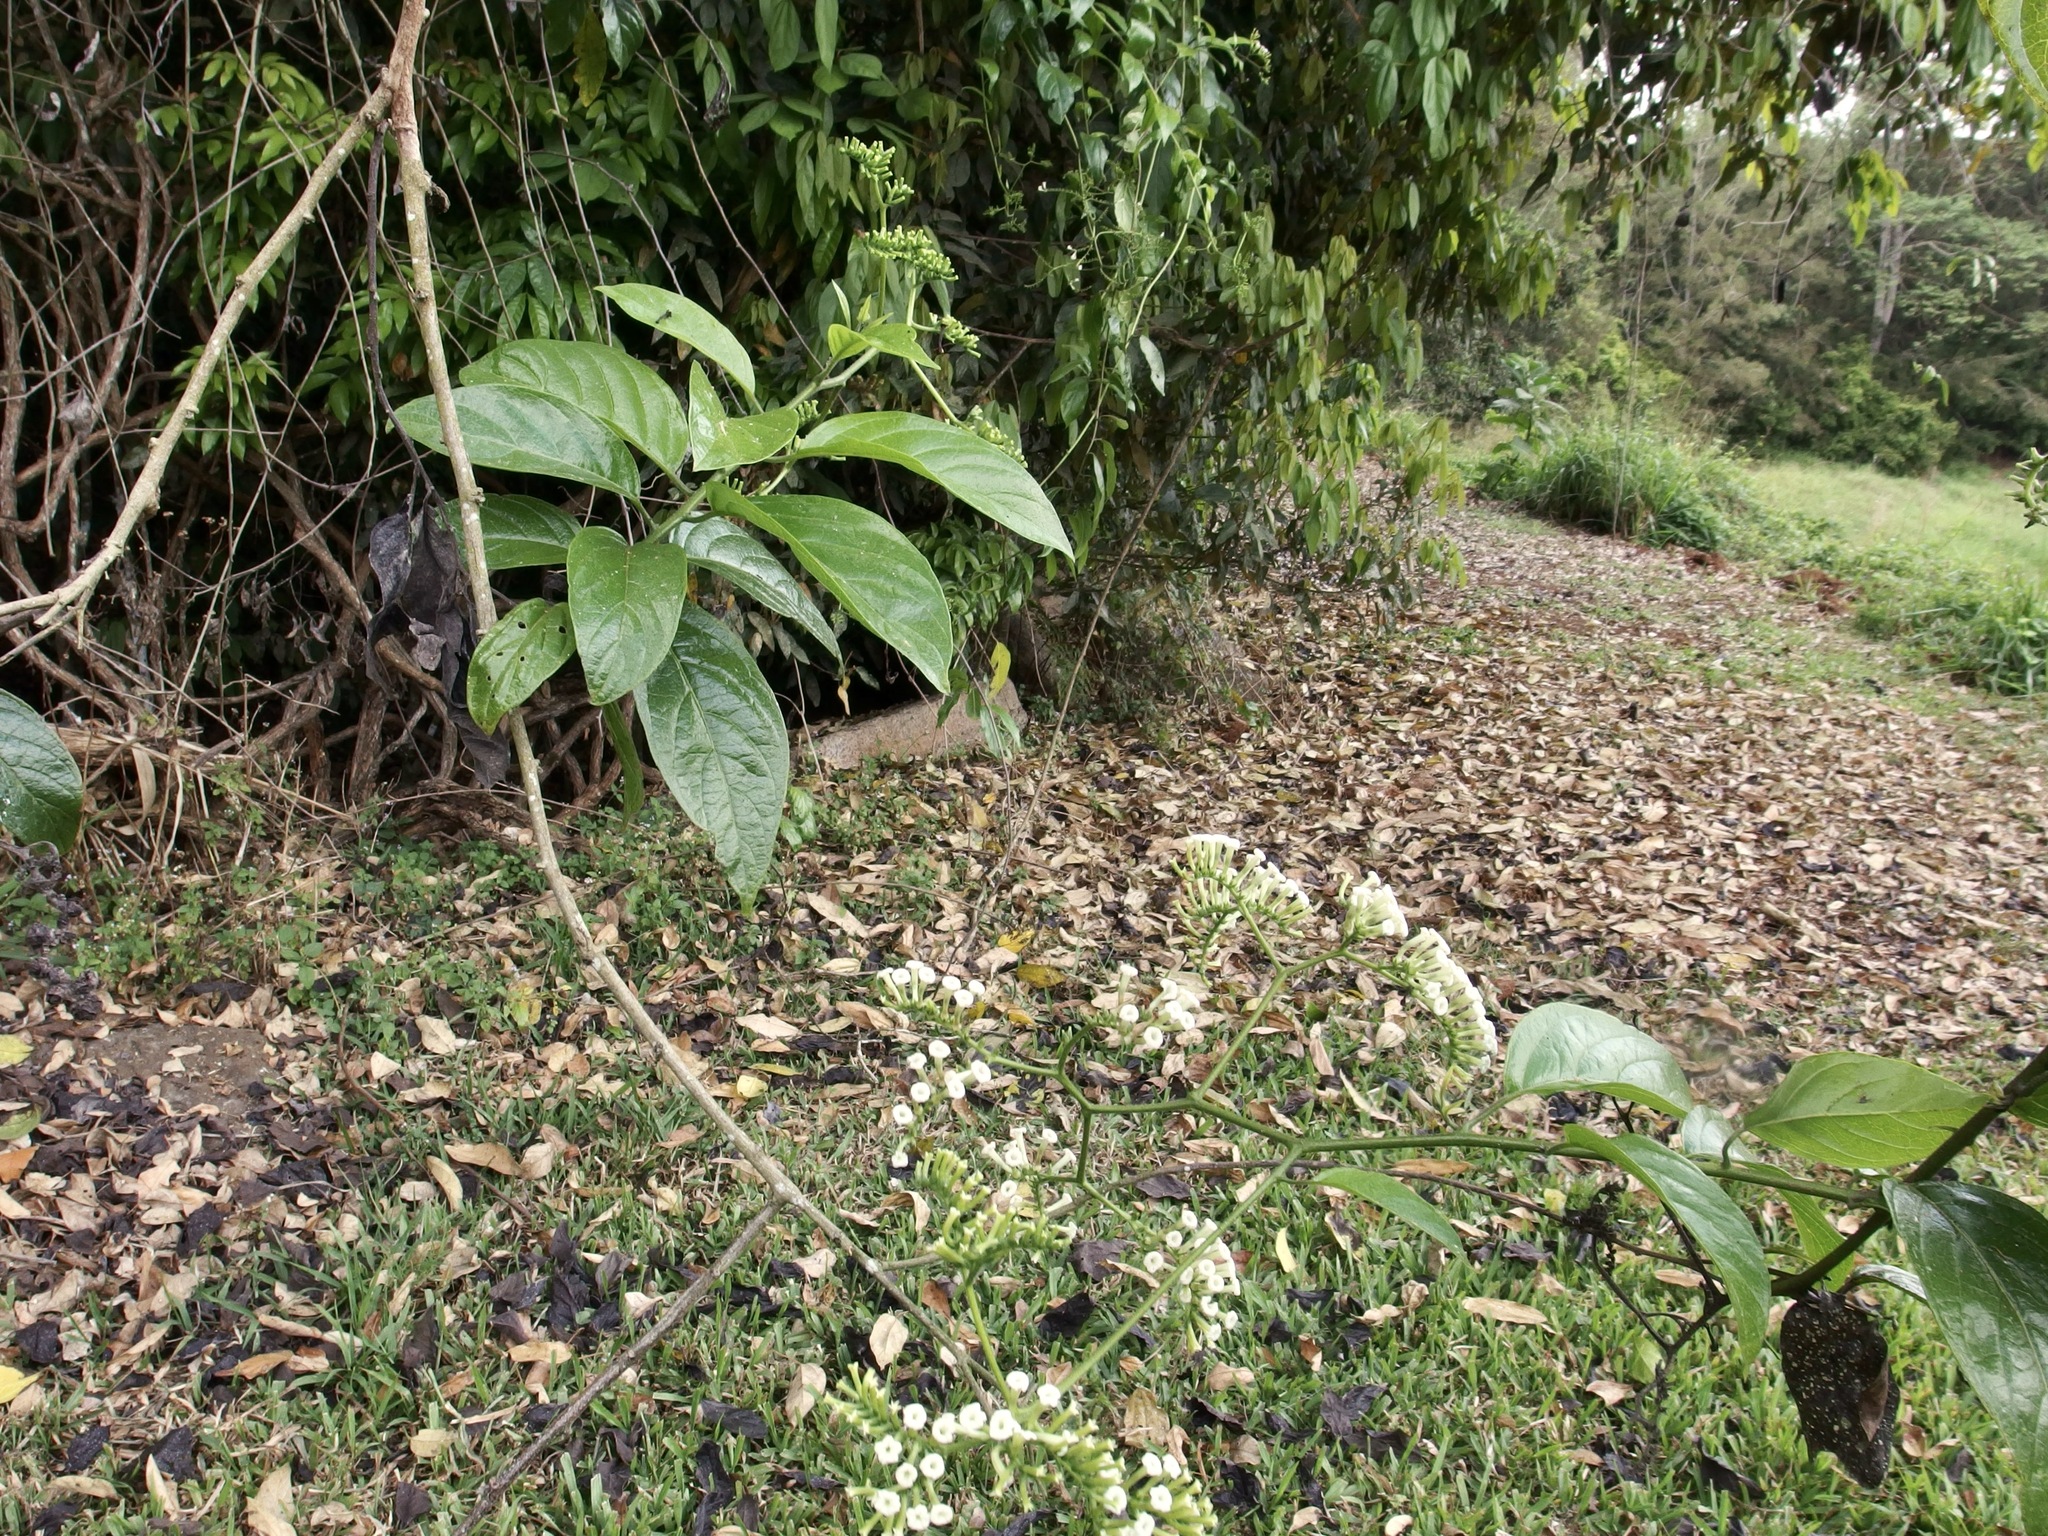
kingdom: Plantae
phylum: Tracheophyta
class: Magnoliopsida
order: Boraginales
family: Heliotropiaceae
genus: Heliotropium
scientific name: Heliotropium sarmentosum
